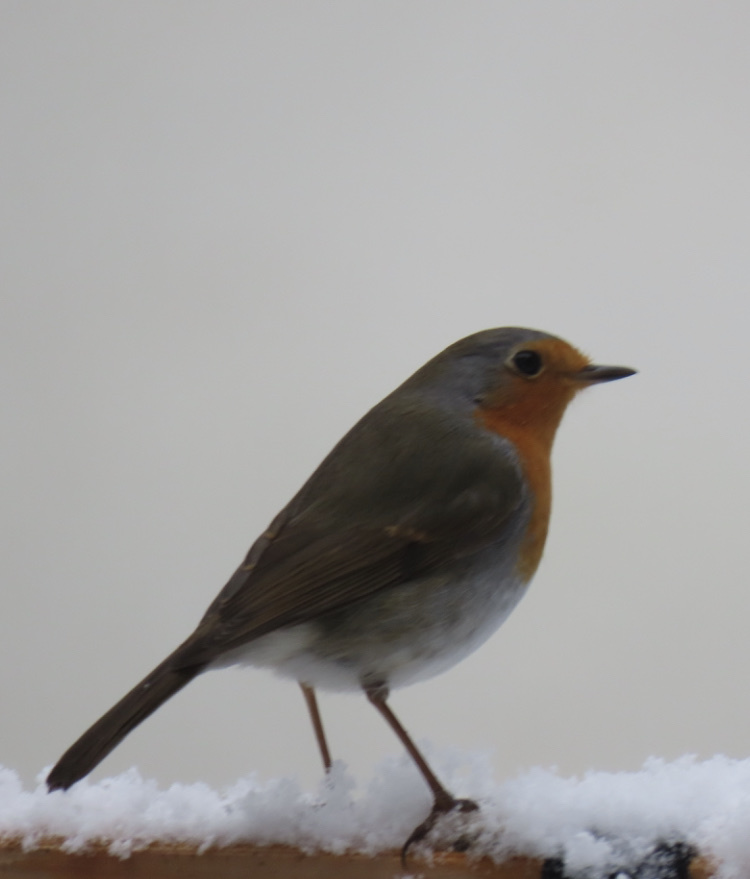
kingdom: Animalia
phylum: Chordata
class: Aves
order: Passeriformes
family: Muscicapidae
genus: Erithacus
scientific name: Erithacus rubecula
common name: European robin
